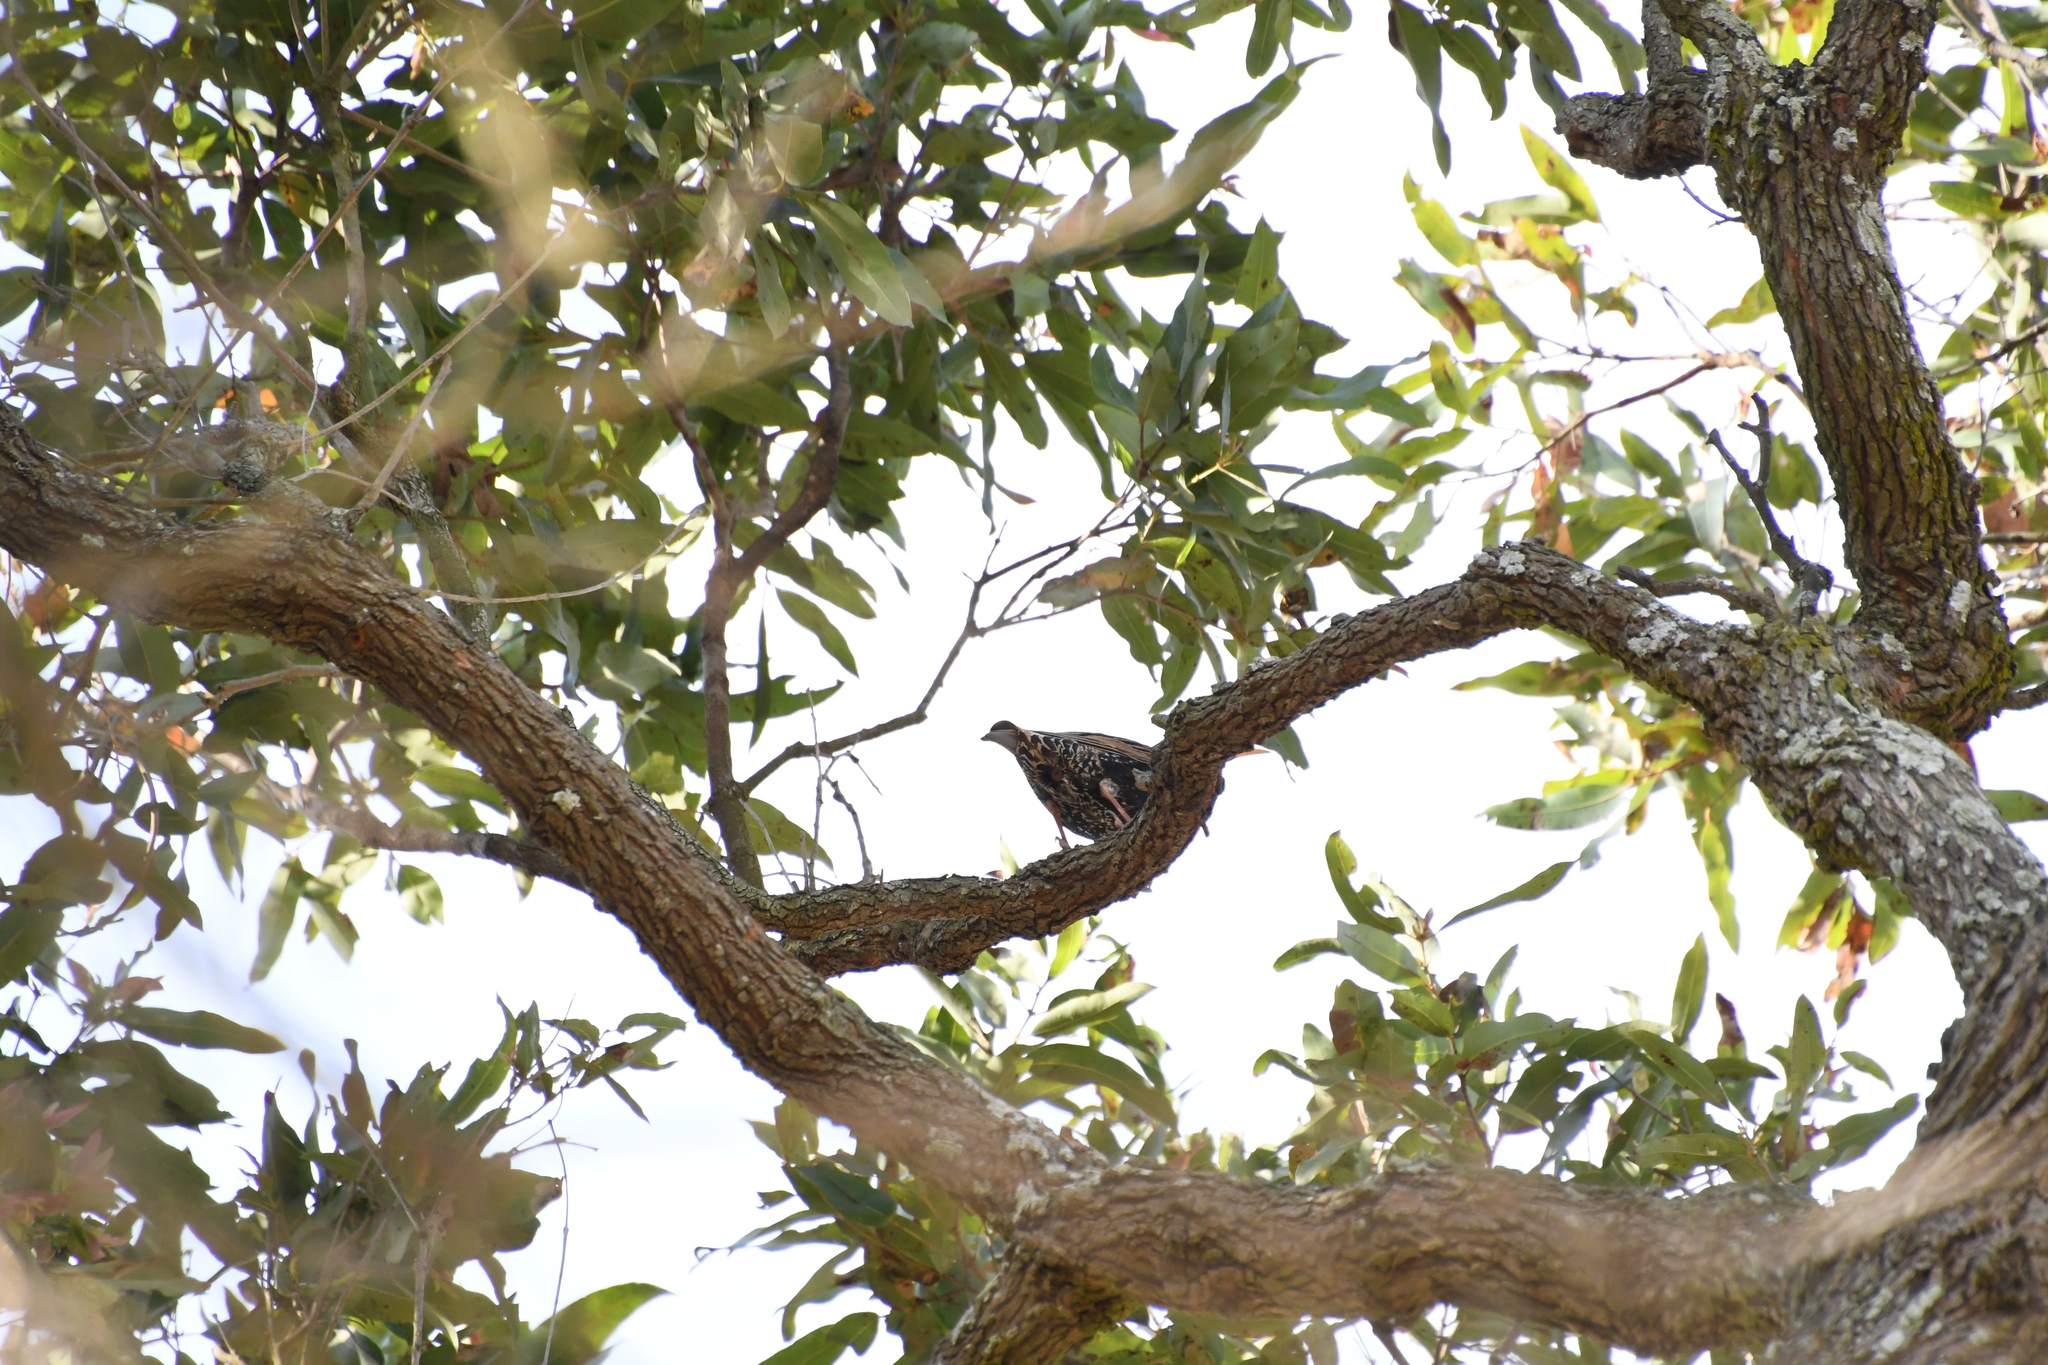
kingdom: Animalia
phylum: Chordata
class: Aves
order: Passeriformes
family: Sturnidae
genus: Sturnus
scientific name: Sturnus vulgaris
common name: Common starling
